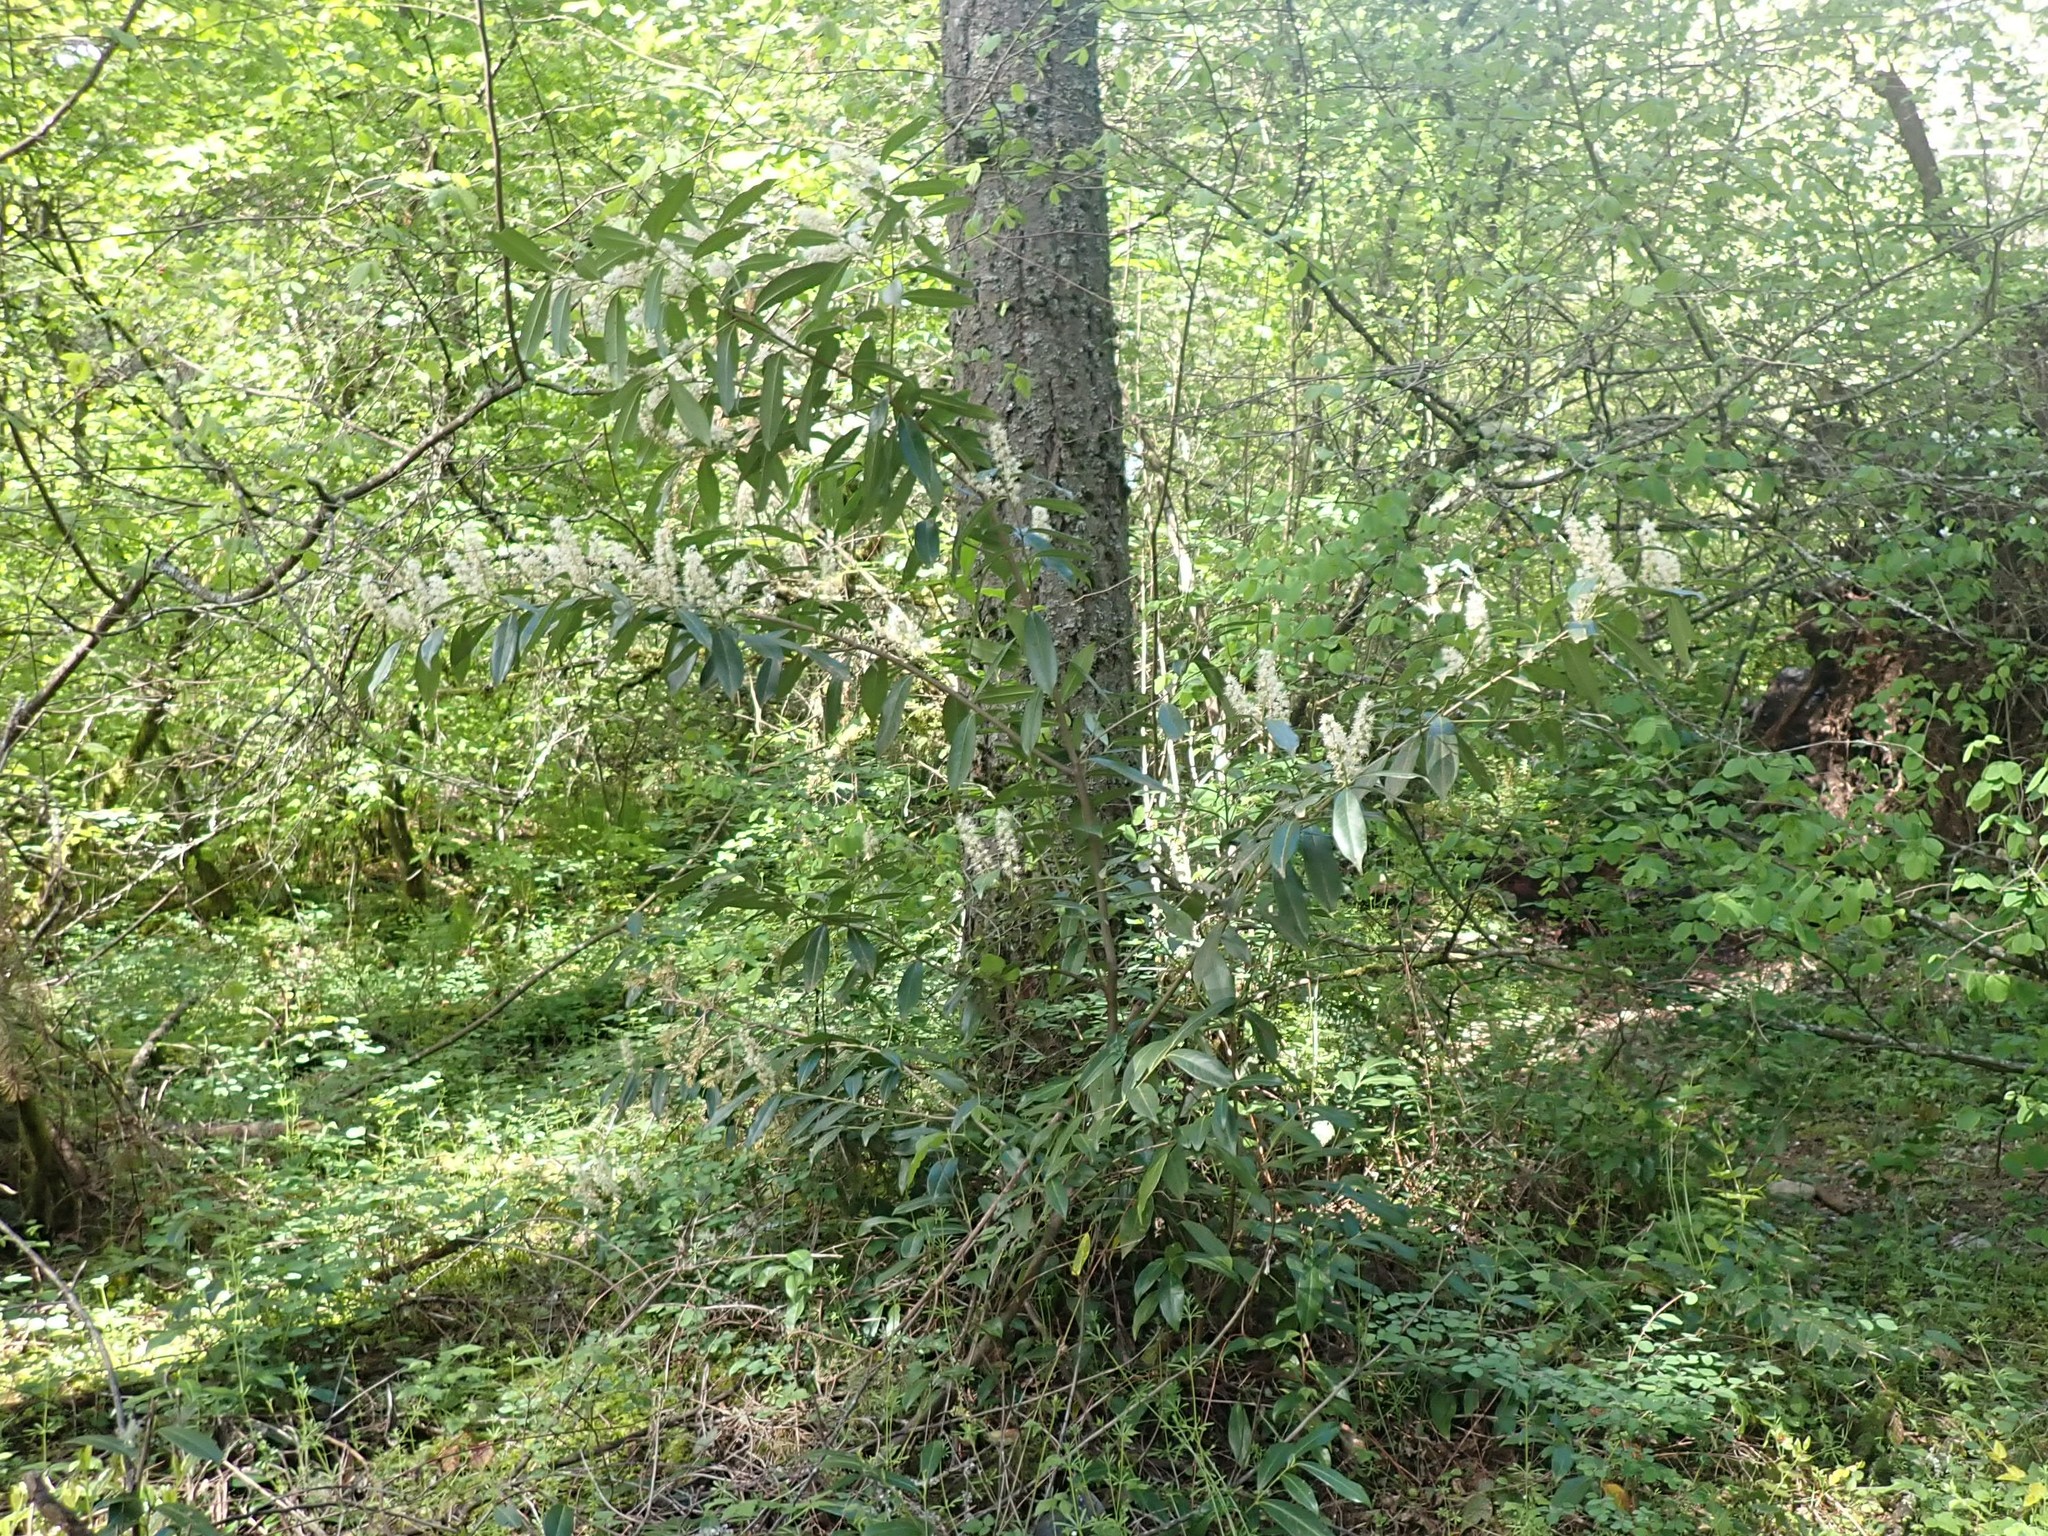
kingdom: Plantae
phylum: Tracheophyta
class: Magnoliopsida
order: Rosales
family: Rosaceae
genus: Prunus
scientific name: Prunus laurocerasus
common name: Cherry laurel
